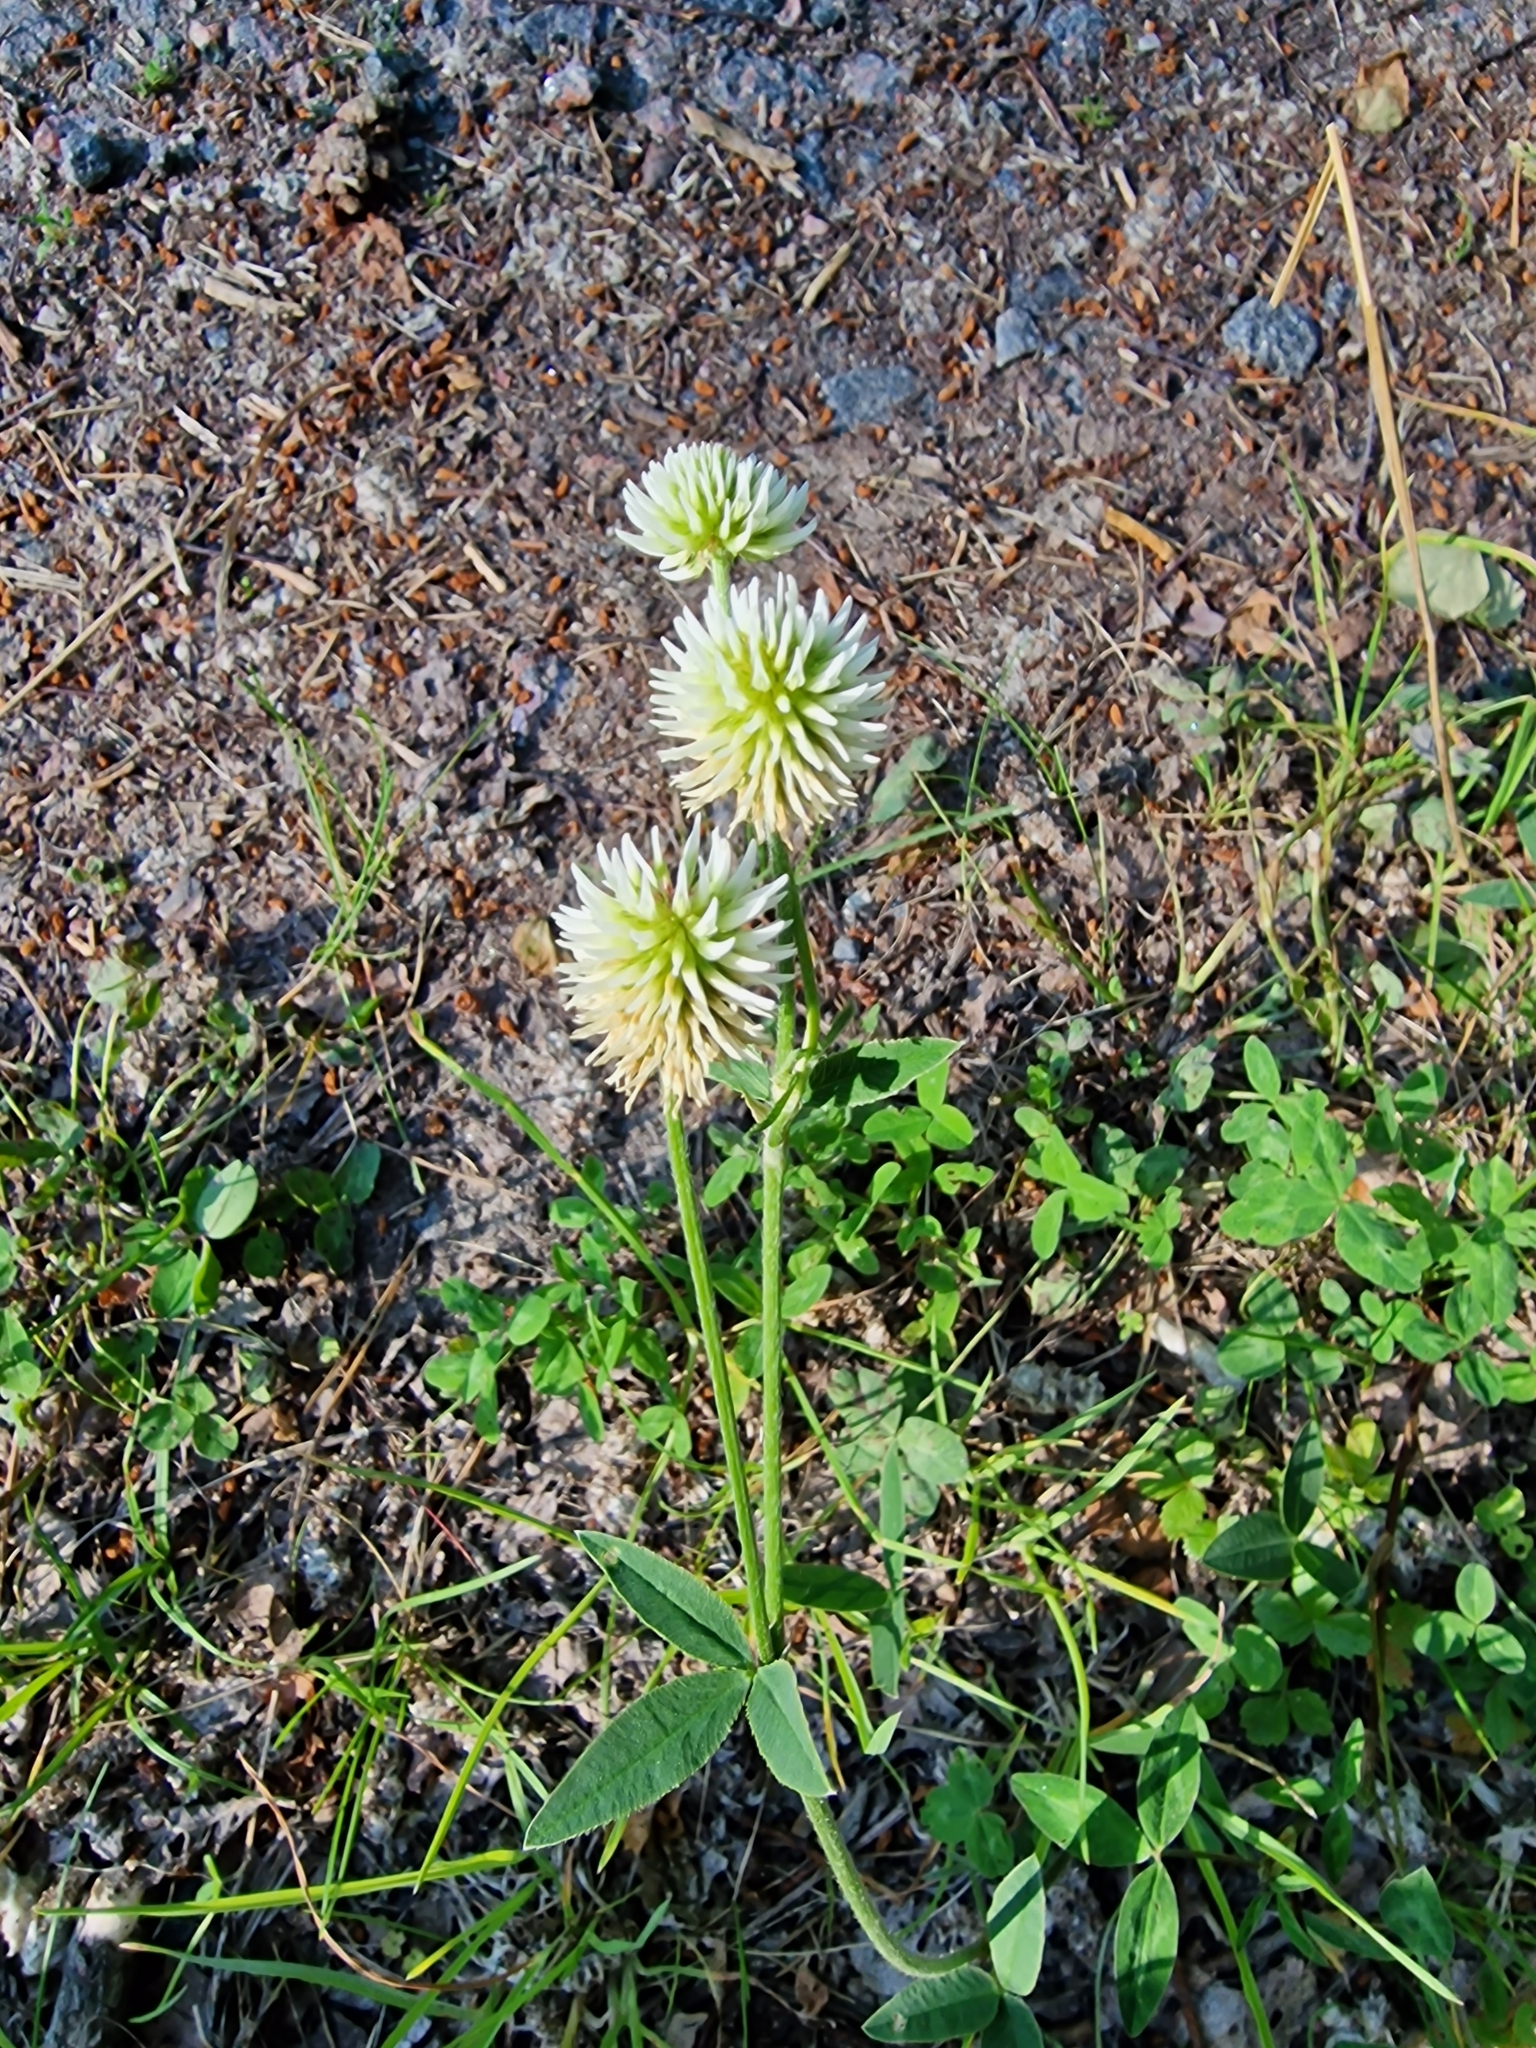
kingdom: Plantae
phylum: Tracheophyta
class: Magnoliopsida
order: Fabales
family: Fabaceae
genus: Trifolium
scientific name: Trifolium montanum
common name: Mountain clover
